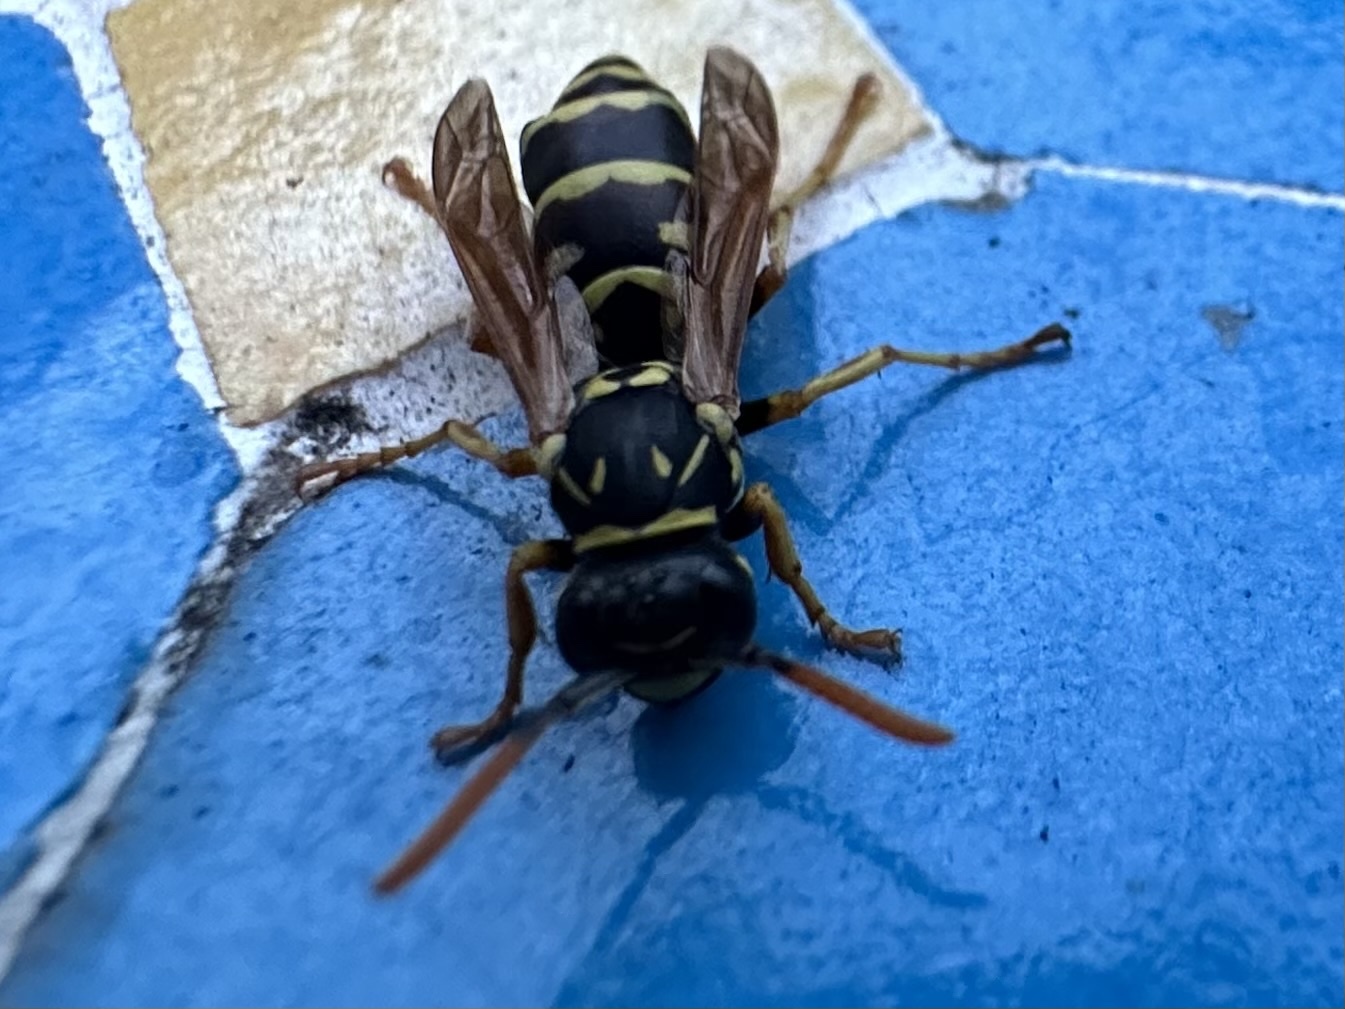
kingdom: Animalia
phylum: Arthropoda
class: Insecta
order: Hymenoptera
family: Eumenidae
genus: Polistes
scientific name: Polistes dominula
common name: Paper wasp
